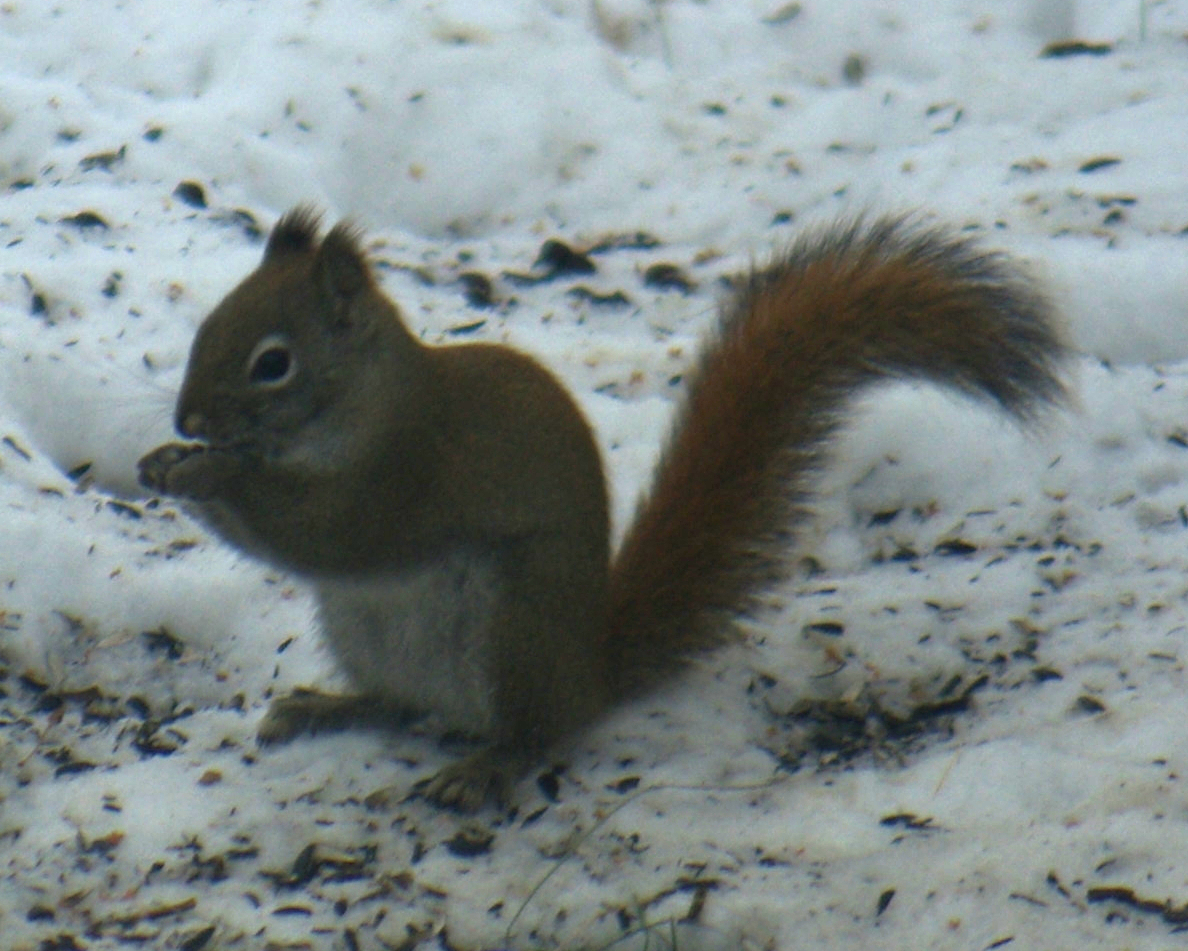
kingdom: Animalia
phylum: Chordata
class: Mammalia
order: Rodentia
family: Sciuridae
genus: Tamiasciurus
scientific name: Tamiasciurus hudsonicus
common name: Red squirrel
